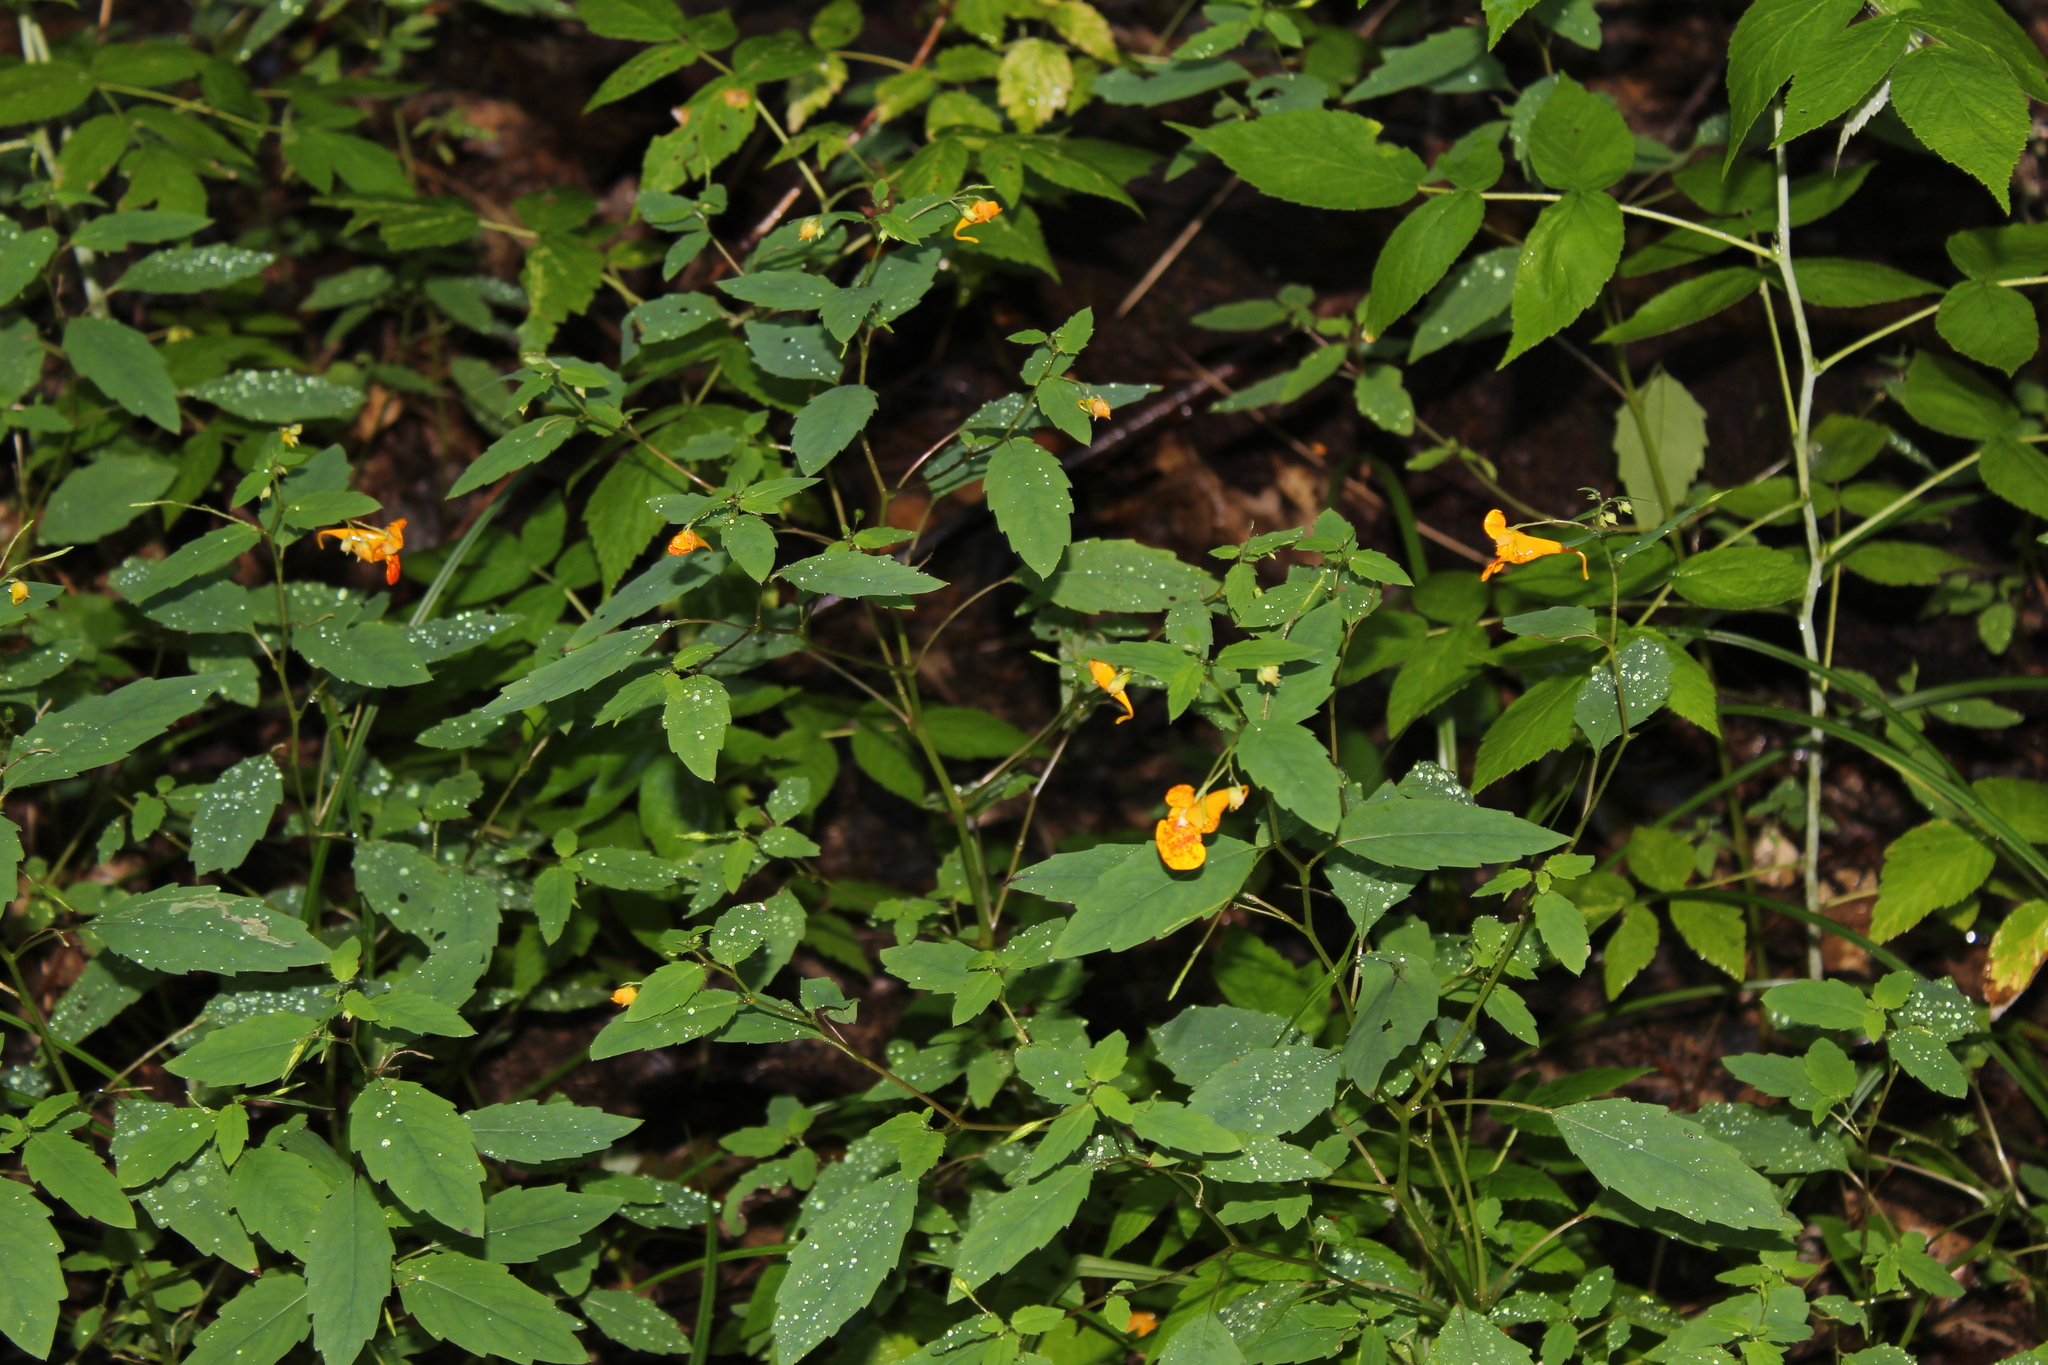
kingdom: Plantae
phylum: Tracheophyta
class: Magnoliopsida
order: Ericales
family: Balsaminaceae
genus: Impatiens
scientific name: Impatiens capensis
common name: Orange balsam
